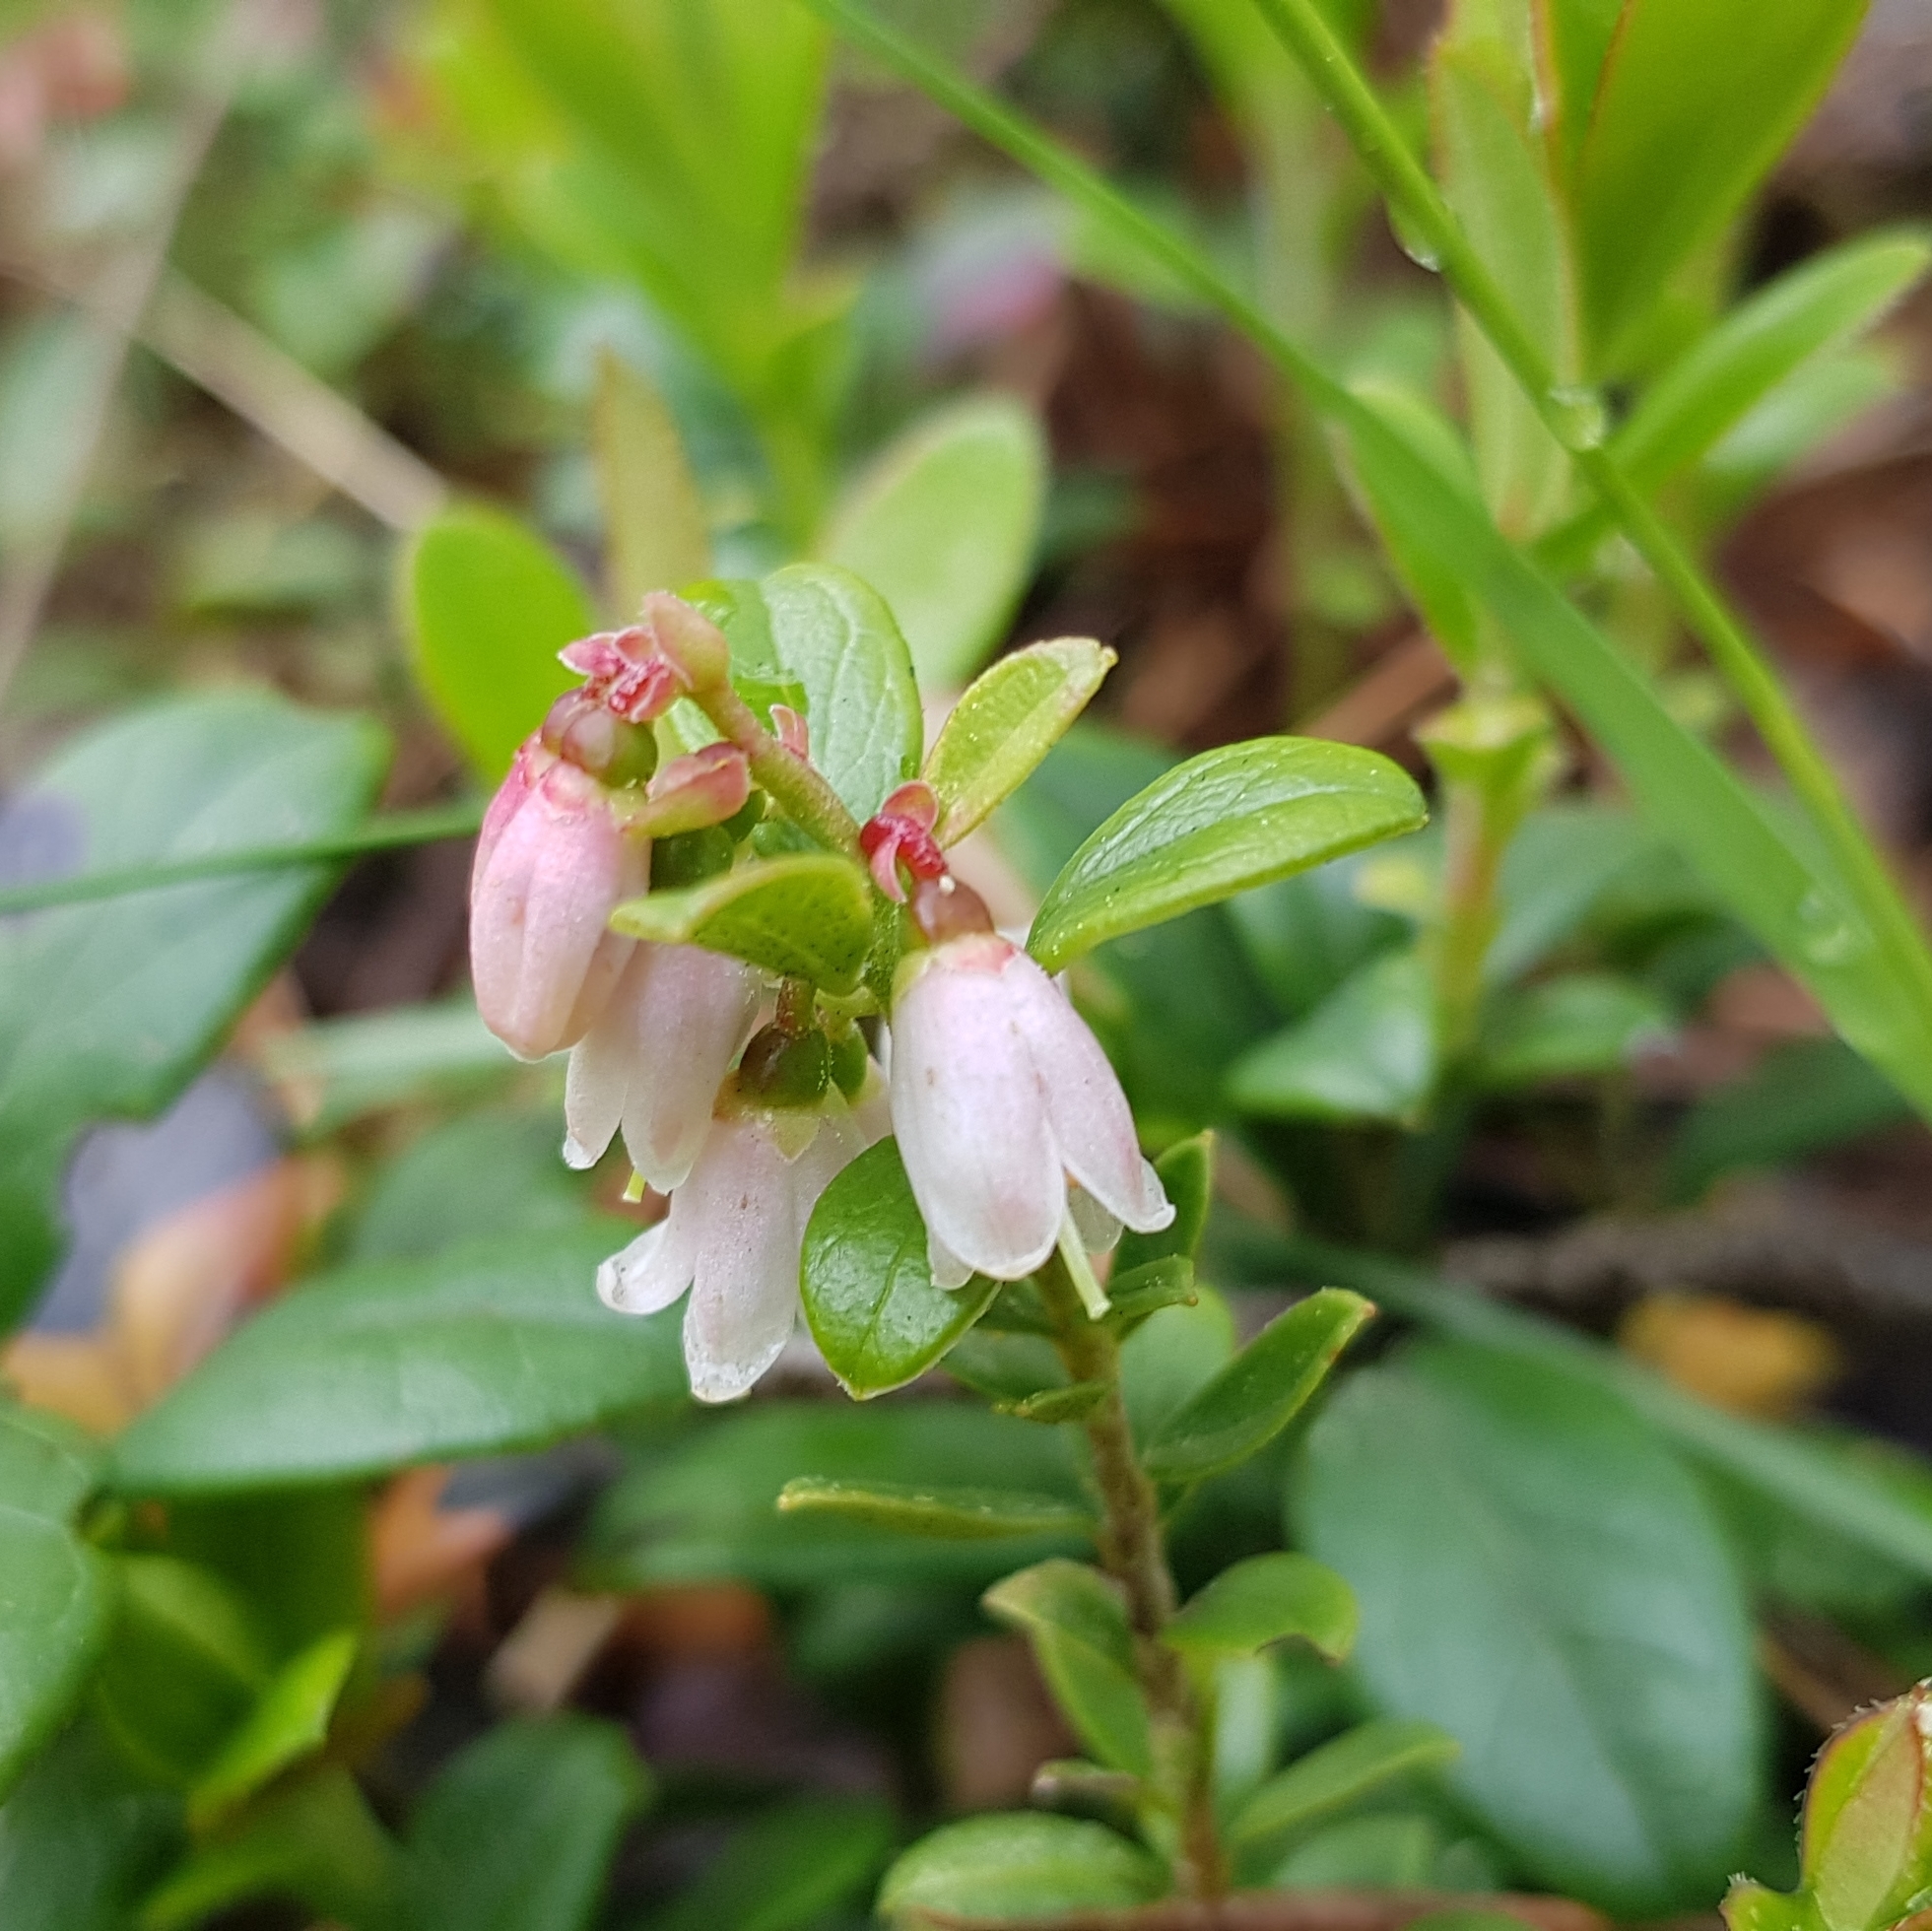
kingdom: Plantae
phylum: Tracheophyta
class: Magnoliopsida
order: Ericales
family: Ericaceae
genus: Vaccinium
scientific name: Vaccinium vitis-idaea
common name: Cowberry
